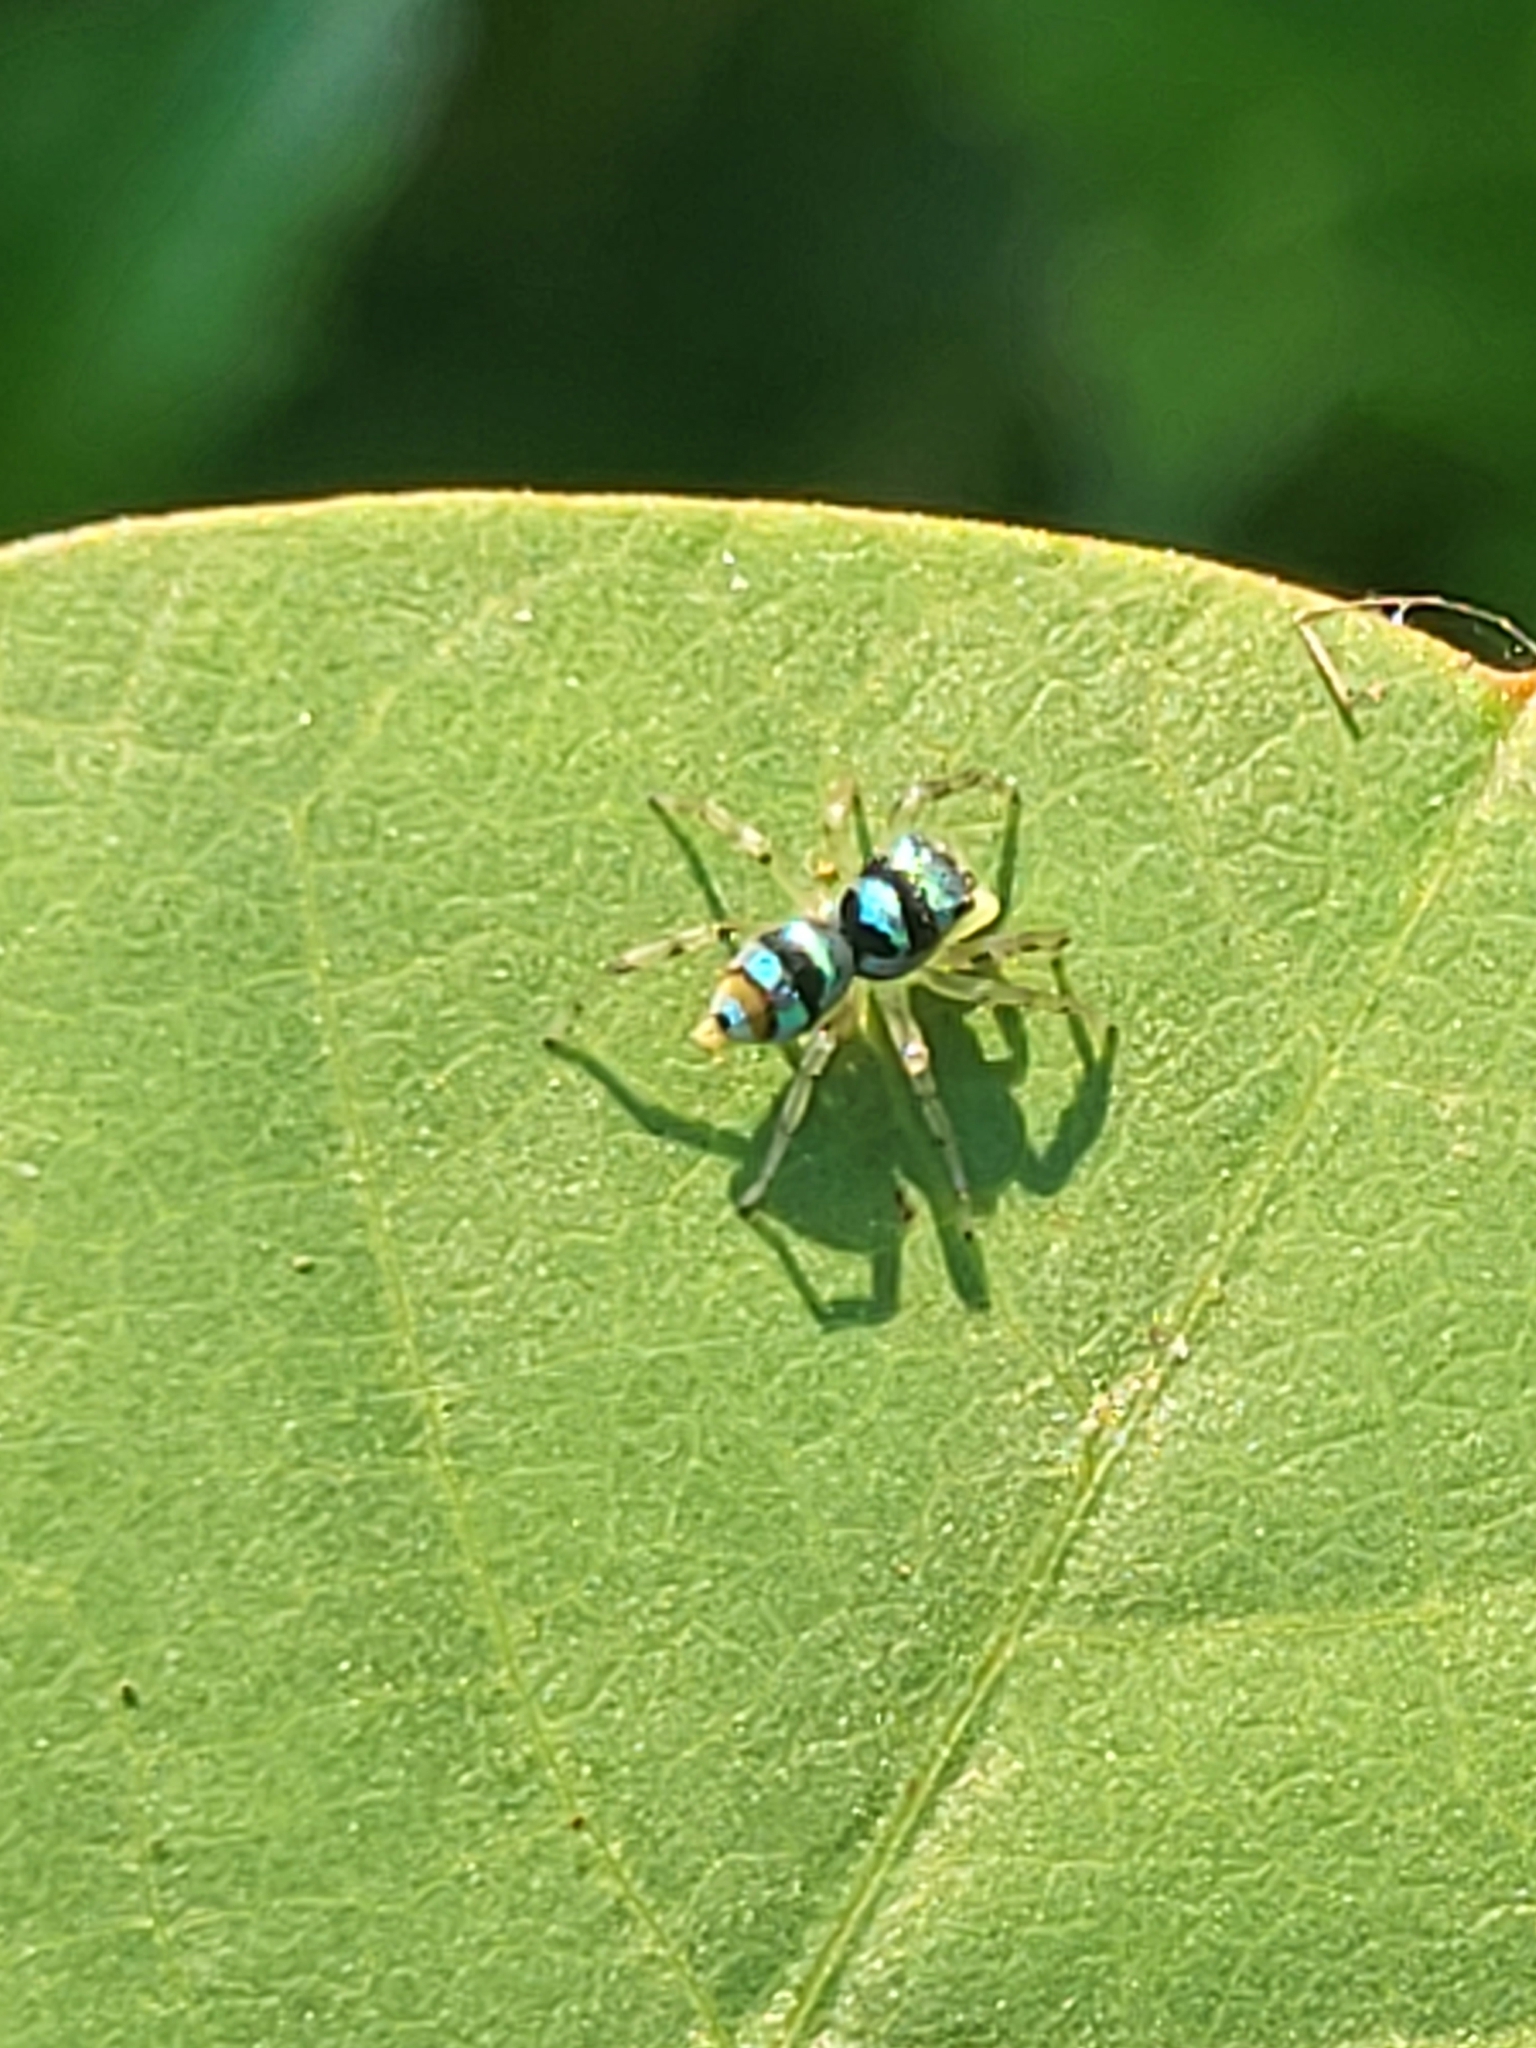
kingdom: Animalia
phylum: Arthropoda
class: Arachnida
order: Araneae
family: Salticidae
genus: Phintella
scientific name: Phintella vittata
